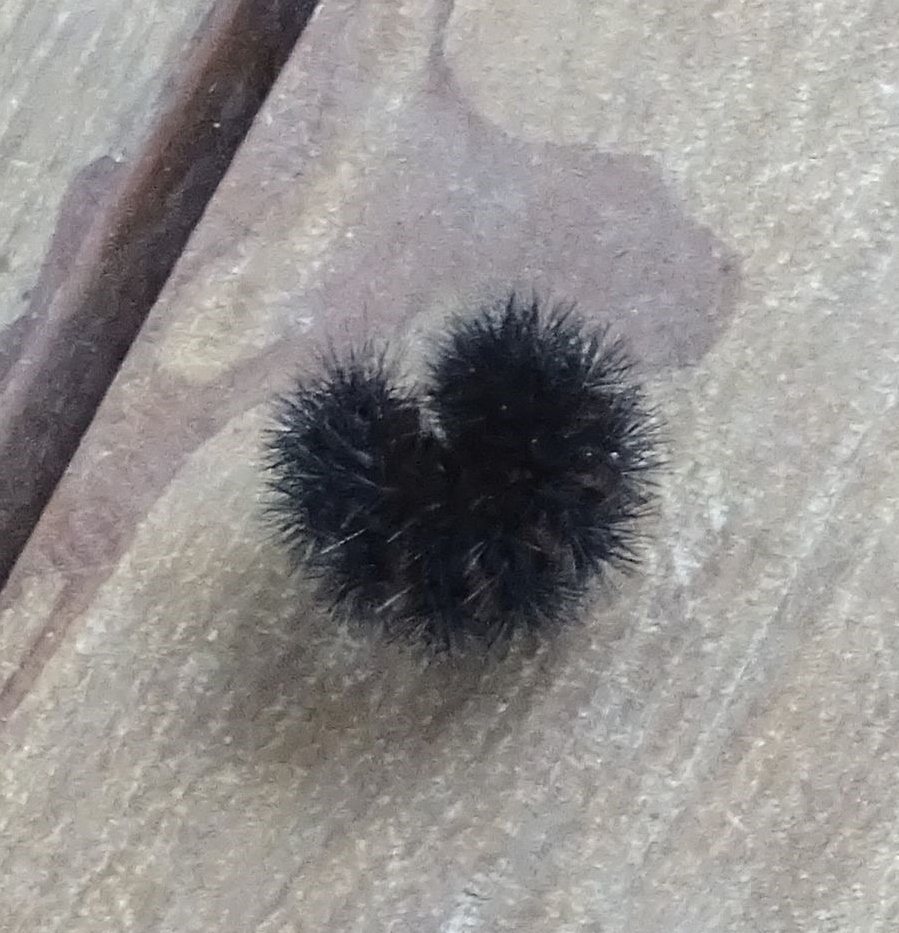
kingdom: Animalia
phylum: Arthropoda
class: Insecta
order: Lepidoptera
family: Erebidae
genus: Hypercompe
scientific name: Hypercompe scribonia
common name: Giant leopard moth
